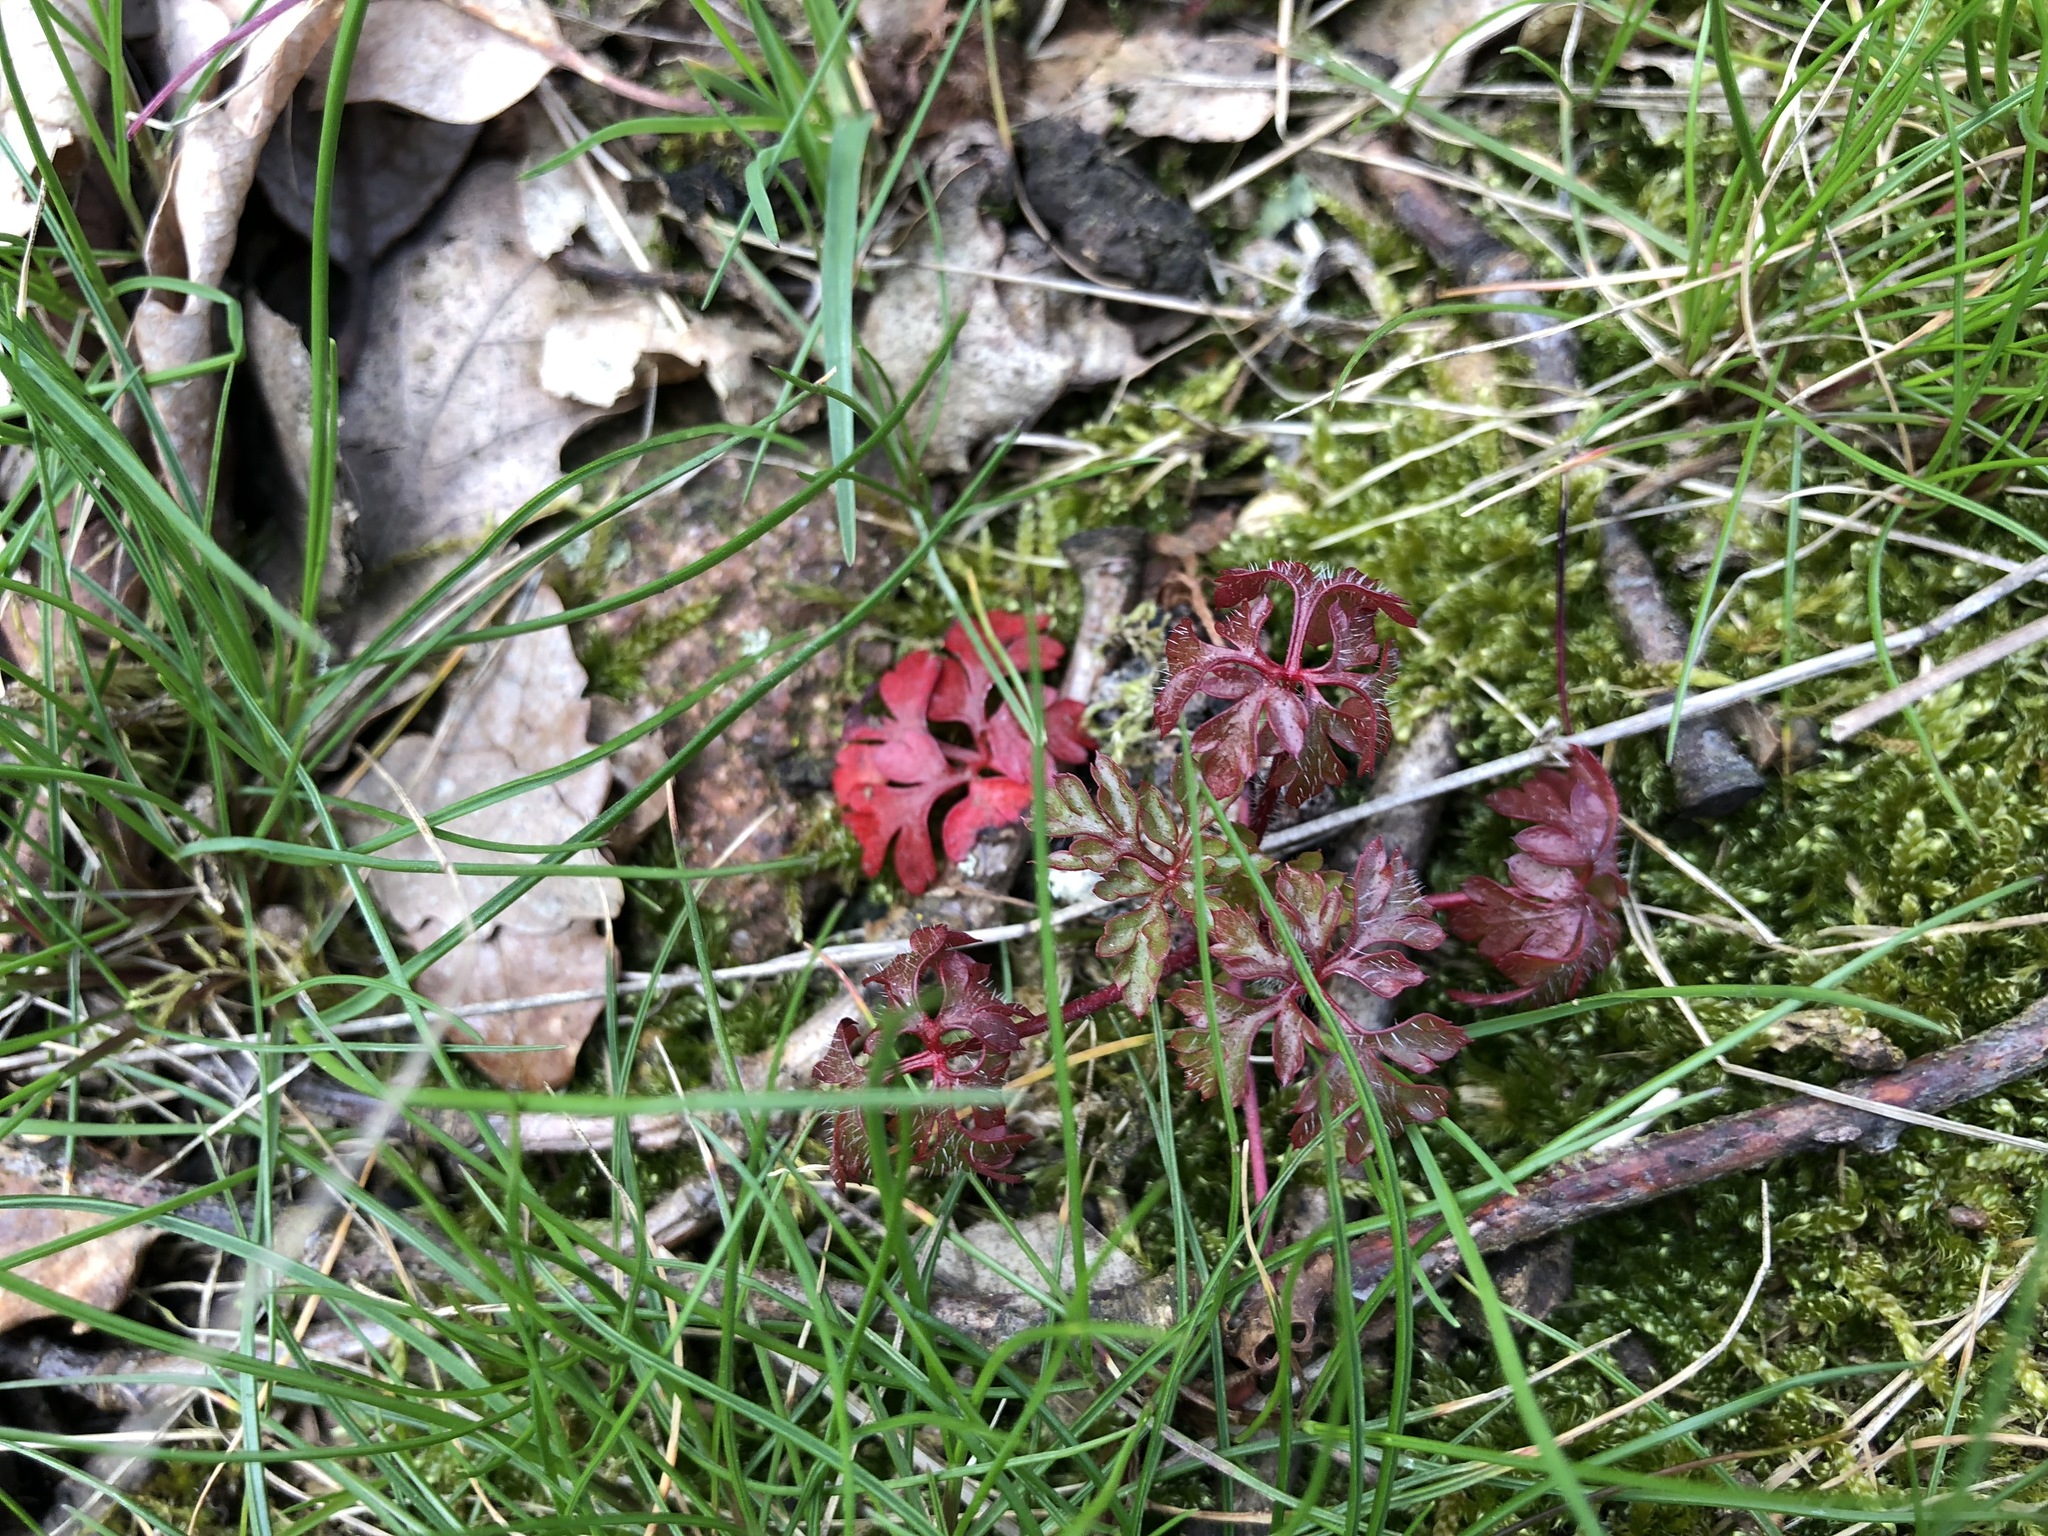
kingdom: Plantae
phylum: Tracheophyta
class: Magnoliopsida
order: Geraniales
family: Geraniaceae
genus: Geranium
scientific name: Geranium robertianum
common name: Herb-robert
